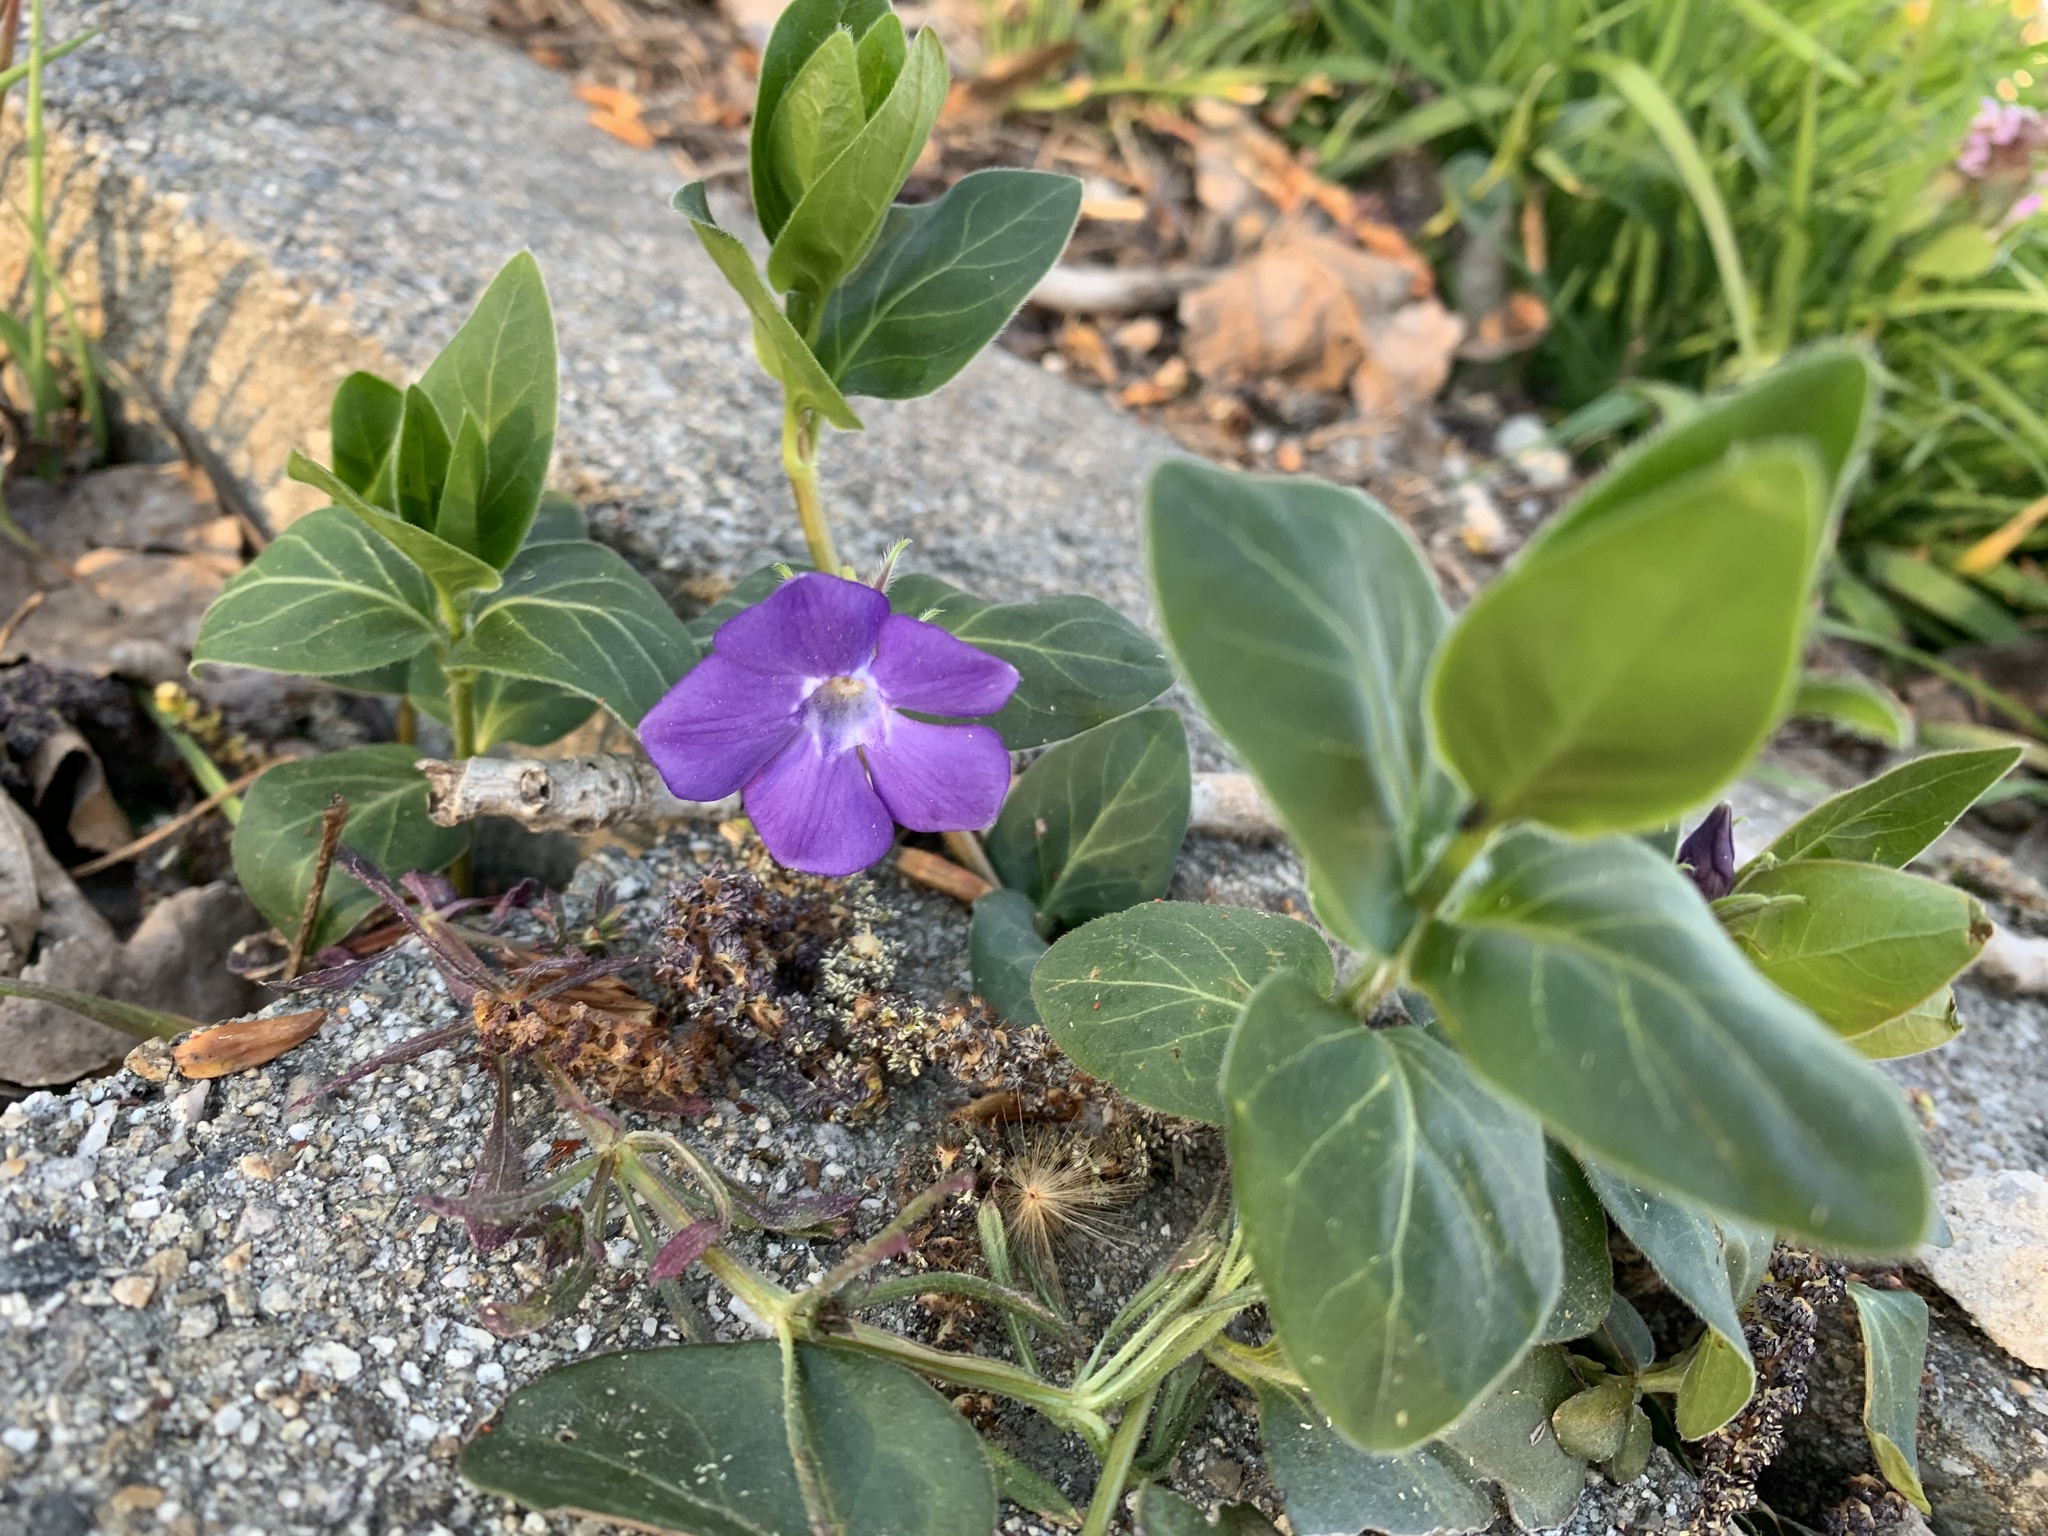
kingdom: Plantae
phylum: Tracheophyta
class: Magnoliopsida
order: Gentianales
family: Apocynaceae
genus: Vinca
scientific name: Vinca major
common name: Greater periwinkle
